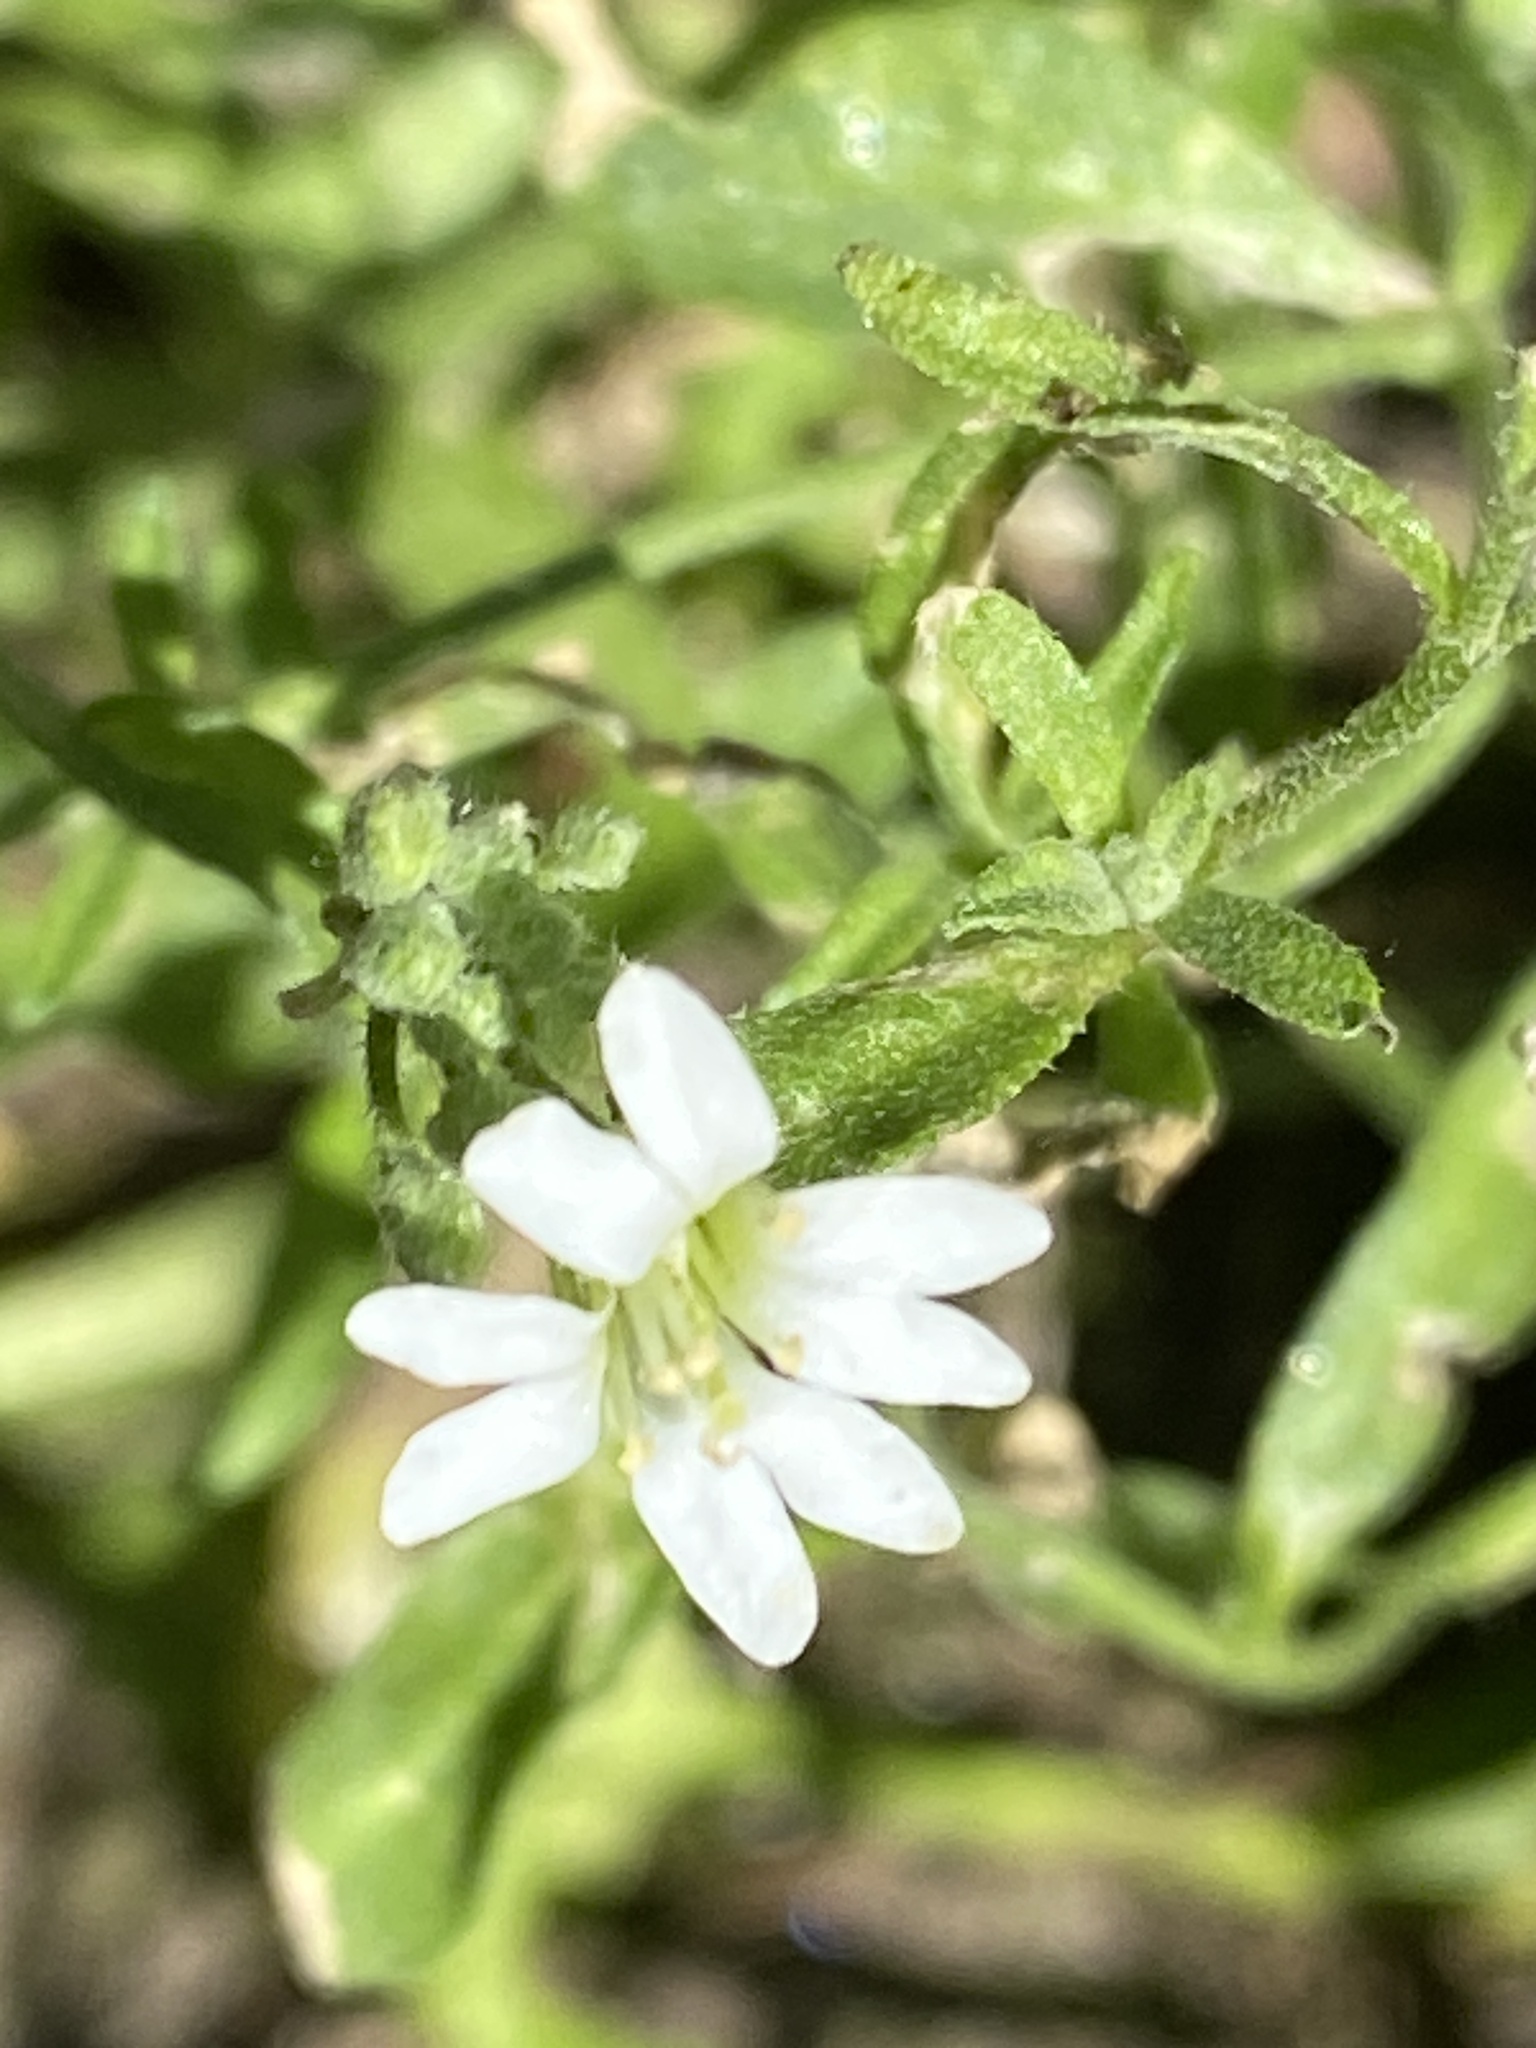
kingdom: Plantae
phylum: Tracheophyta
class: Magnoliopsida
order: Brassicales
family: Brassicaceae
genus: Berteroa
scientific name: Berteroa incana
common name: Hoary alison
